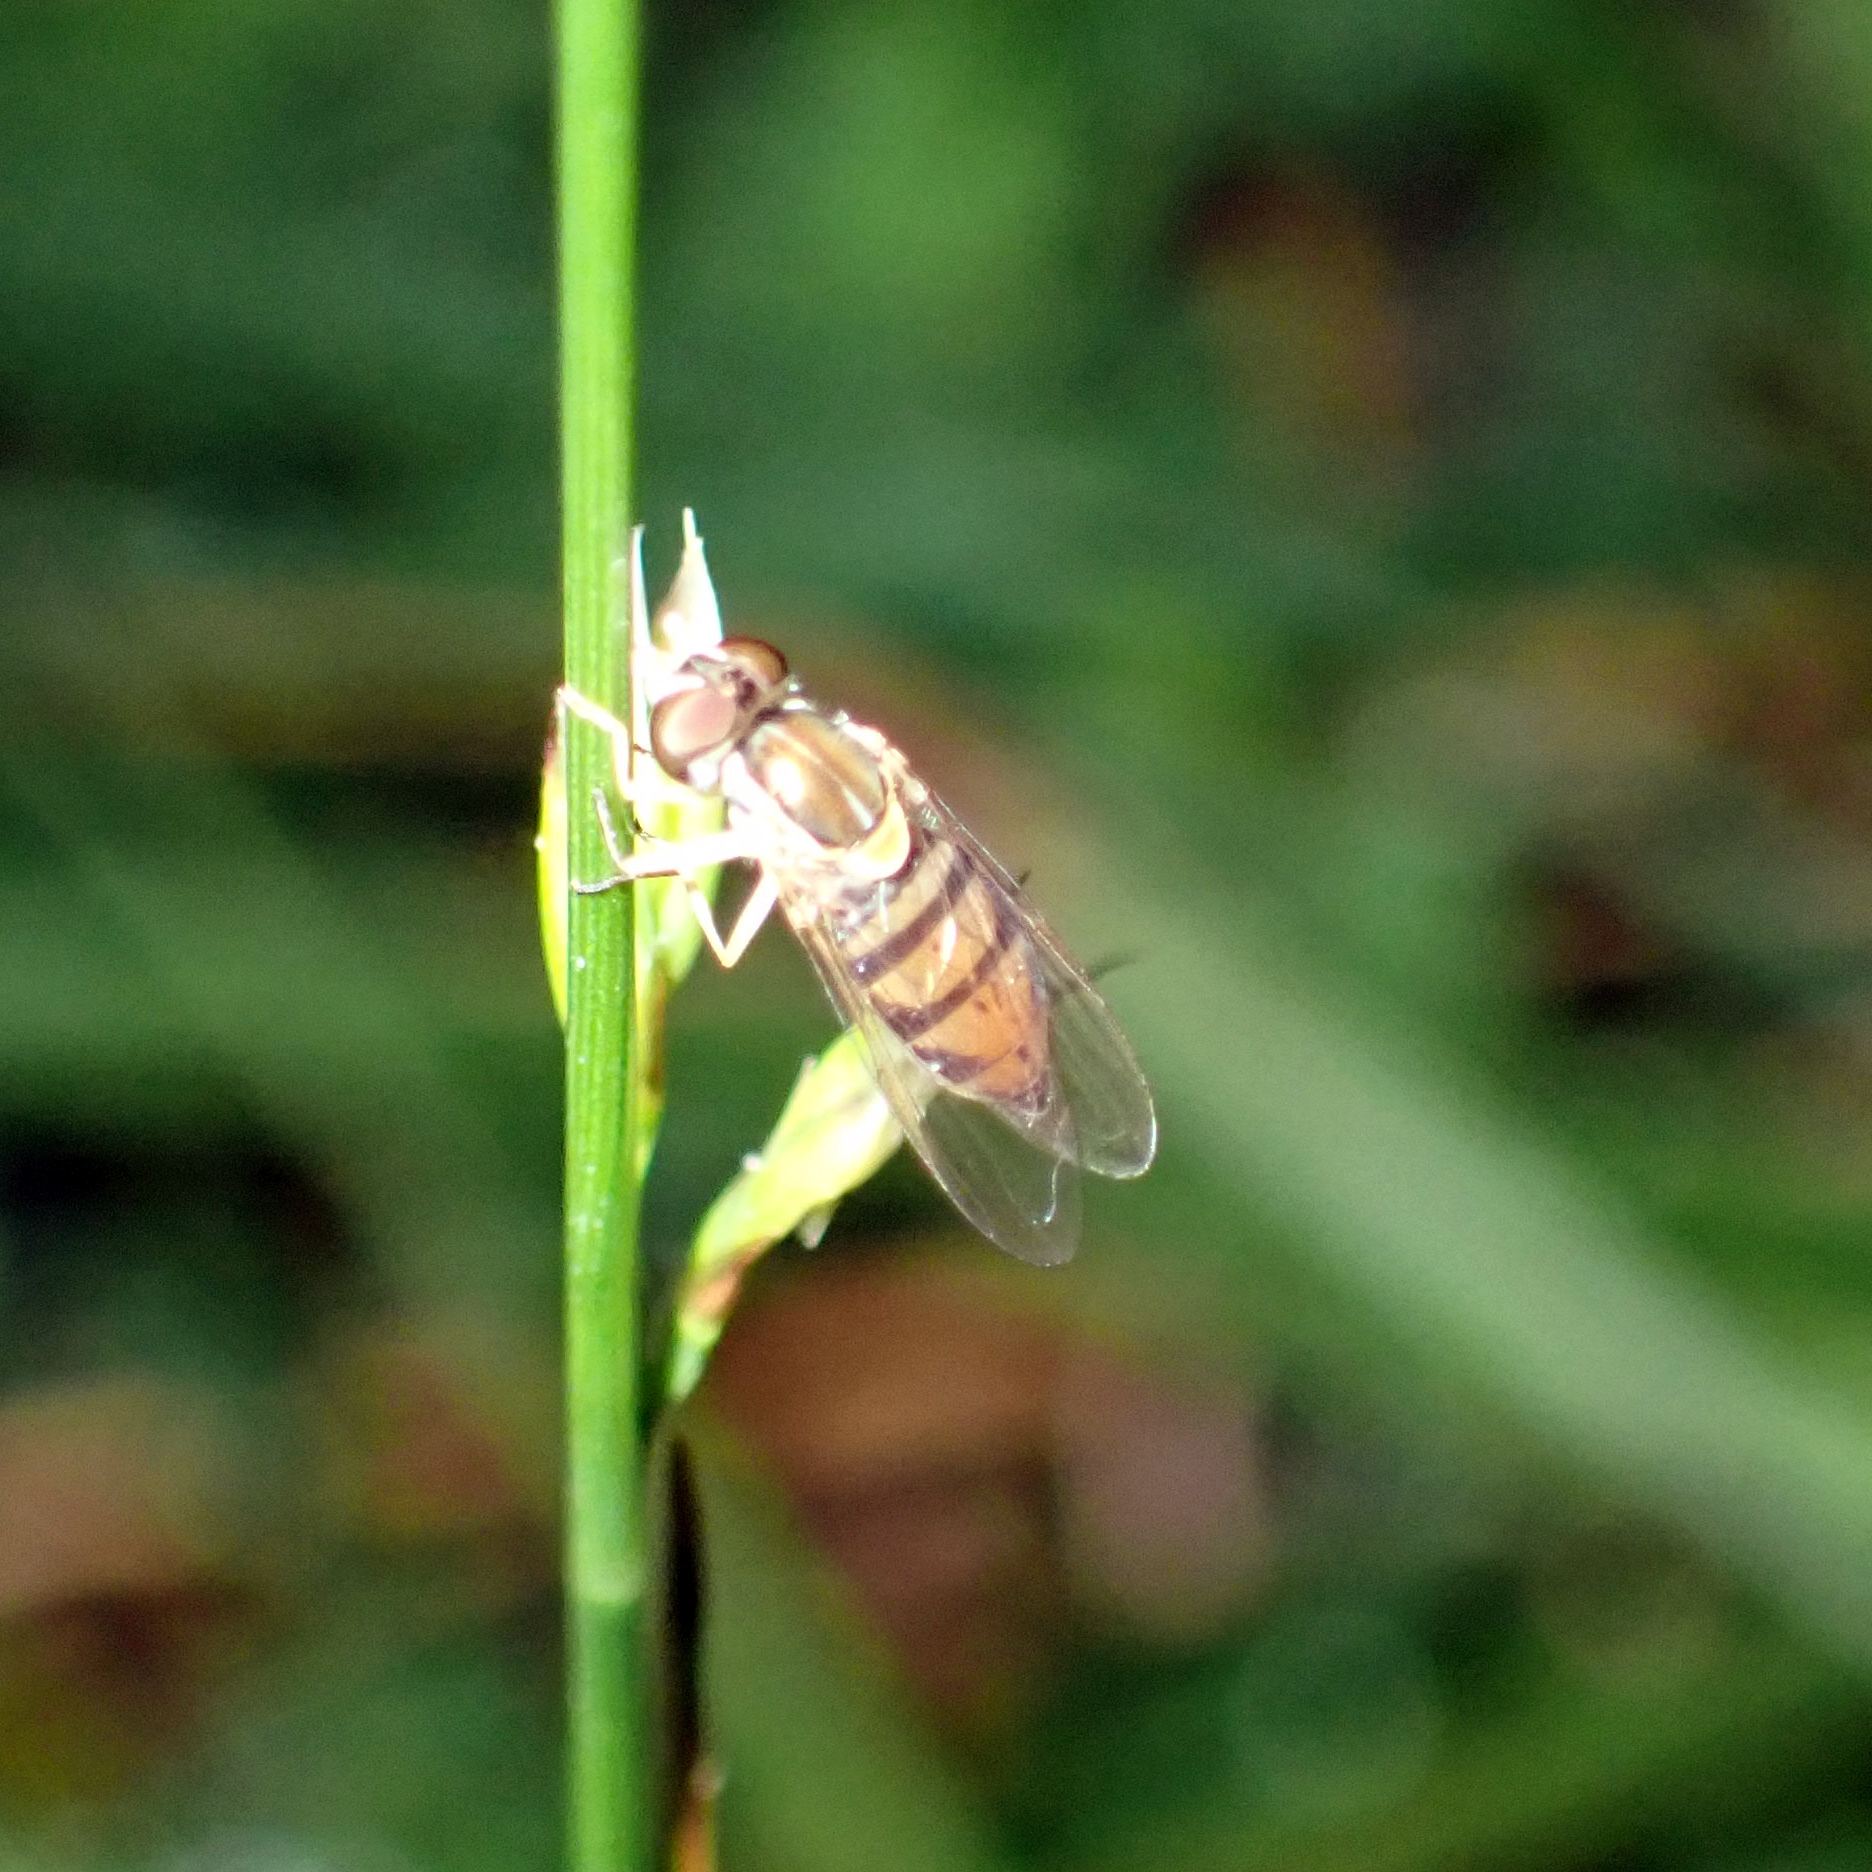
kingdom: Animalia
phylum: Arthropoda
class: Insecta
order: Diptera
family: Syrphidae
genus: Toxomerus
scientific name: Toxomerus marginatus
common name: Syrphid fly
